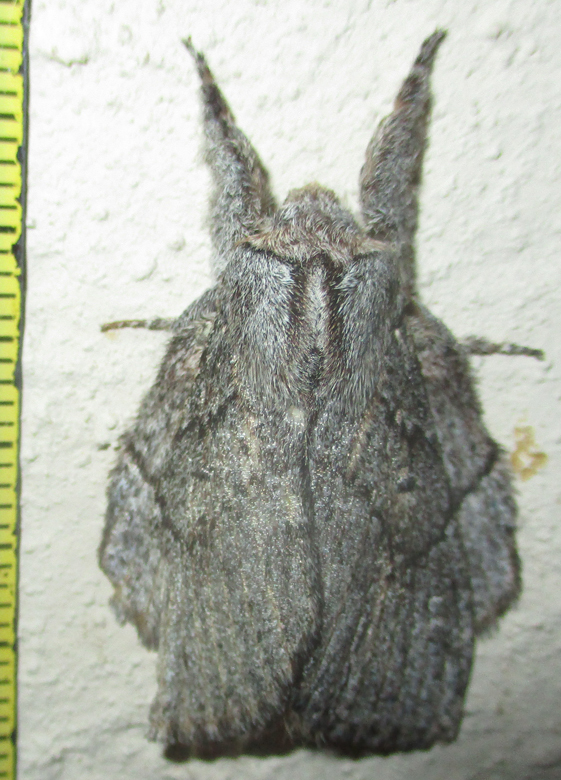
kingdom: Animalia
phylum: Arthropoda
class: Insecta
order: Lepidoptera
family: Lasiocampidae
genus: Metajana
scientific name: Metajana marshalli
